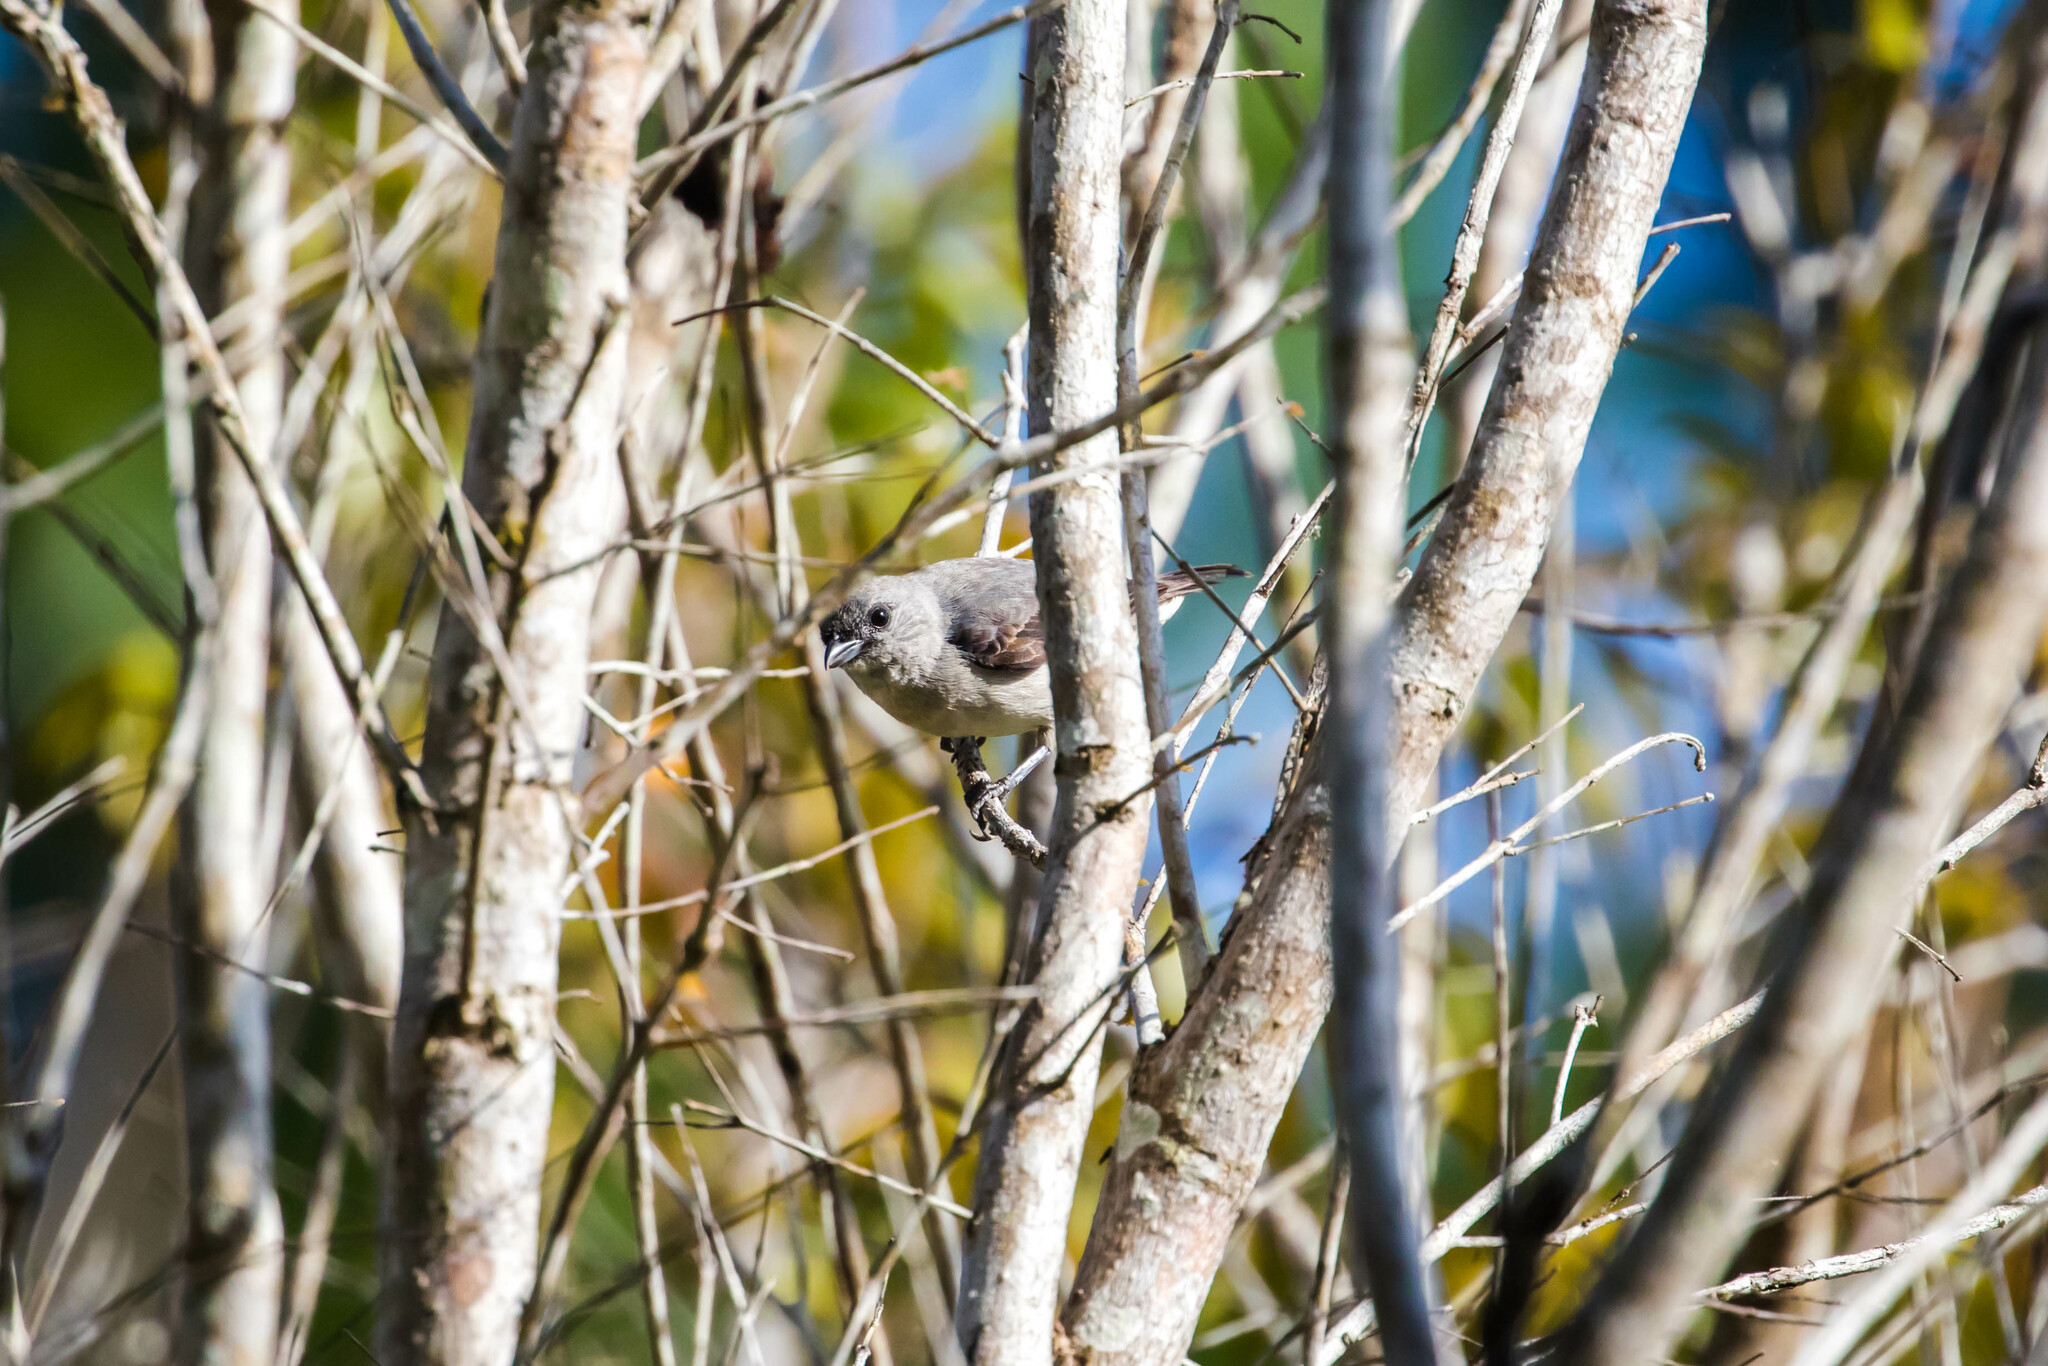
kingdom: Animalia
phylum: Chordata
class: Aves
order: Passeriformes
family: Thraupidae
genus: Tangara
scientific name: Tangara inornata
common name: Plain-colored tanager
